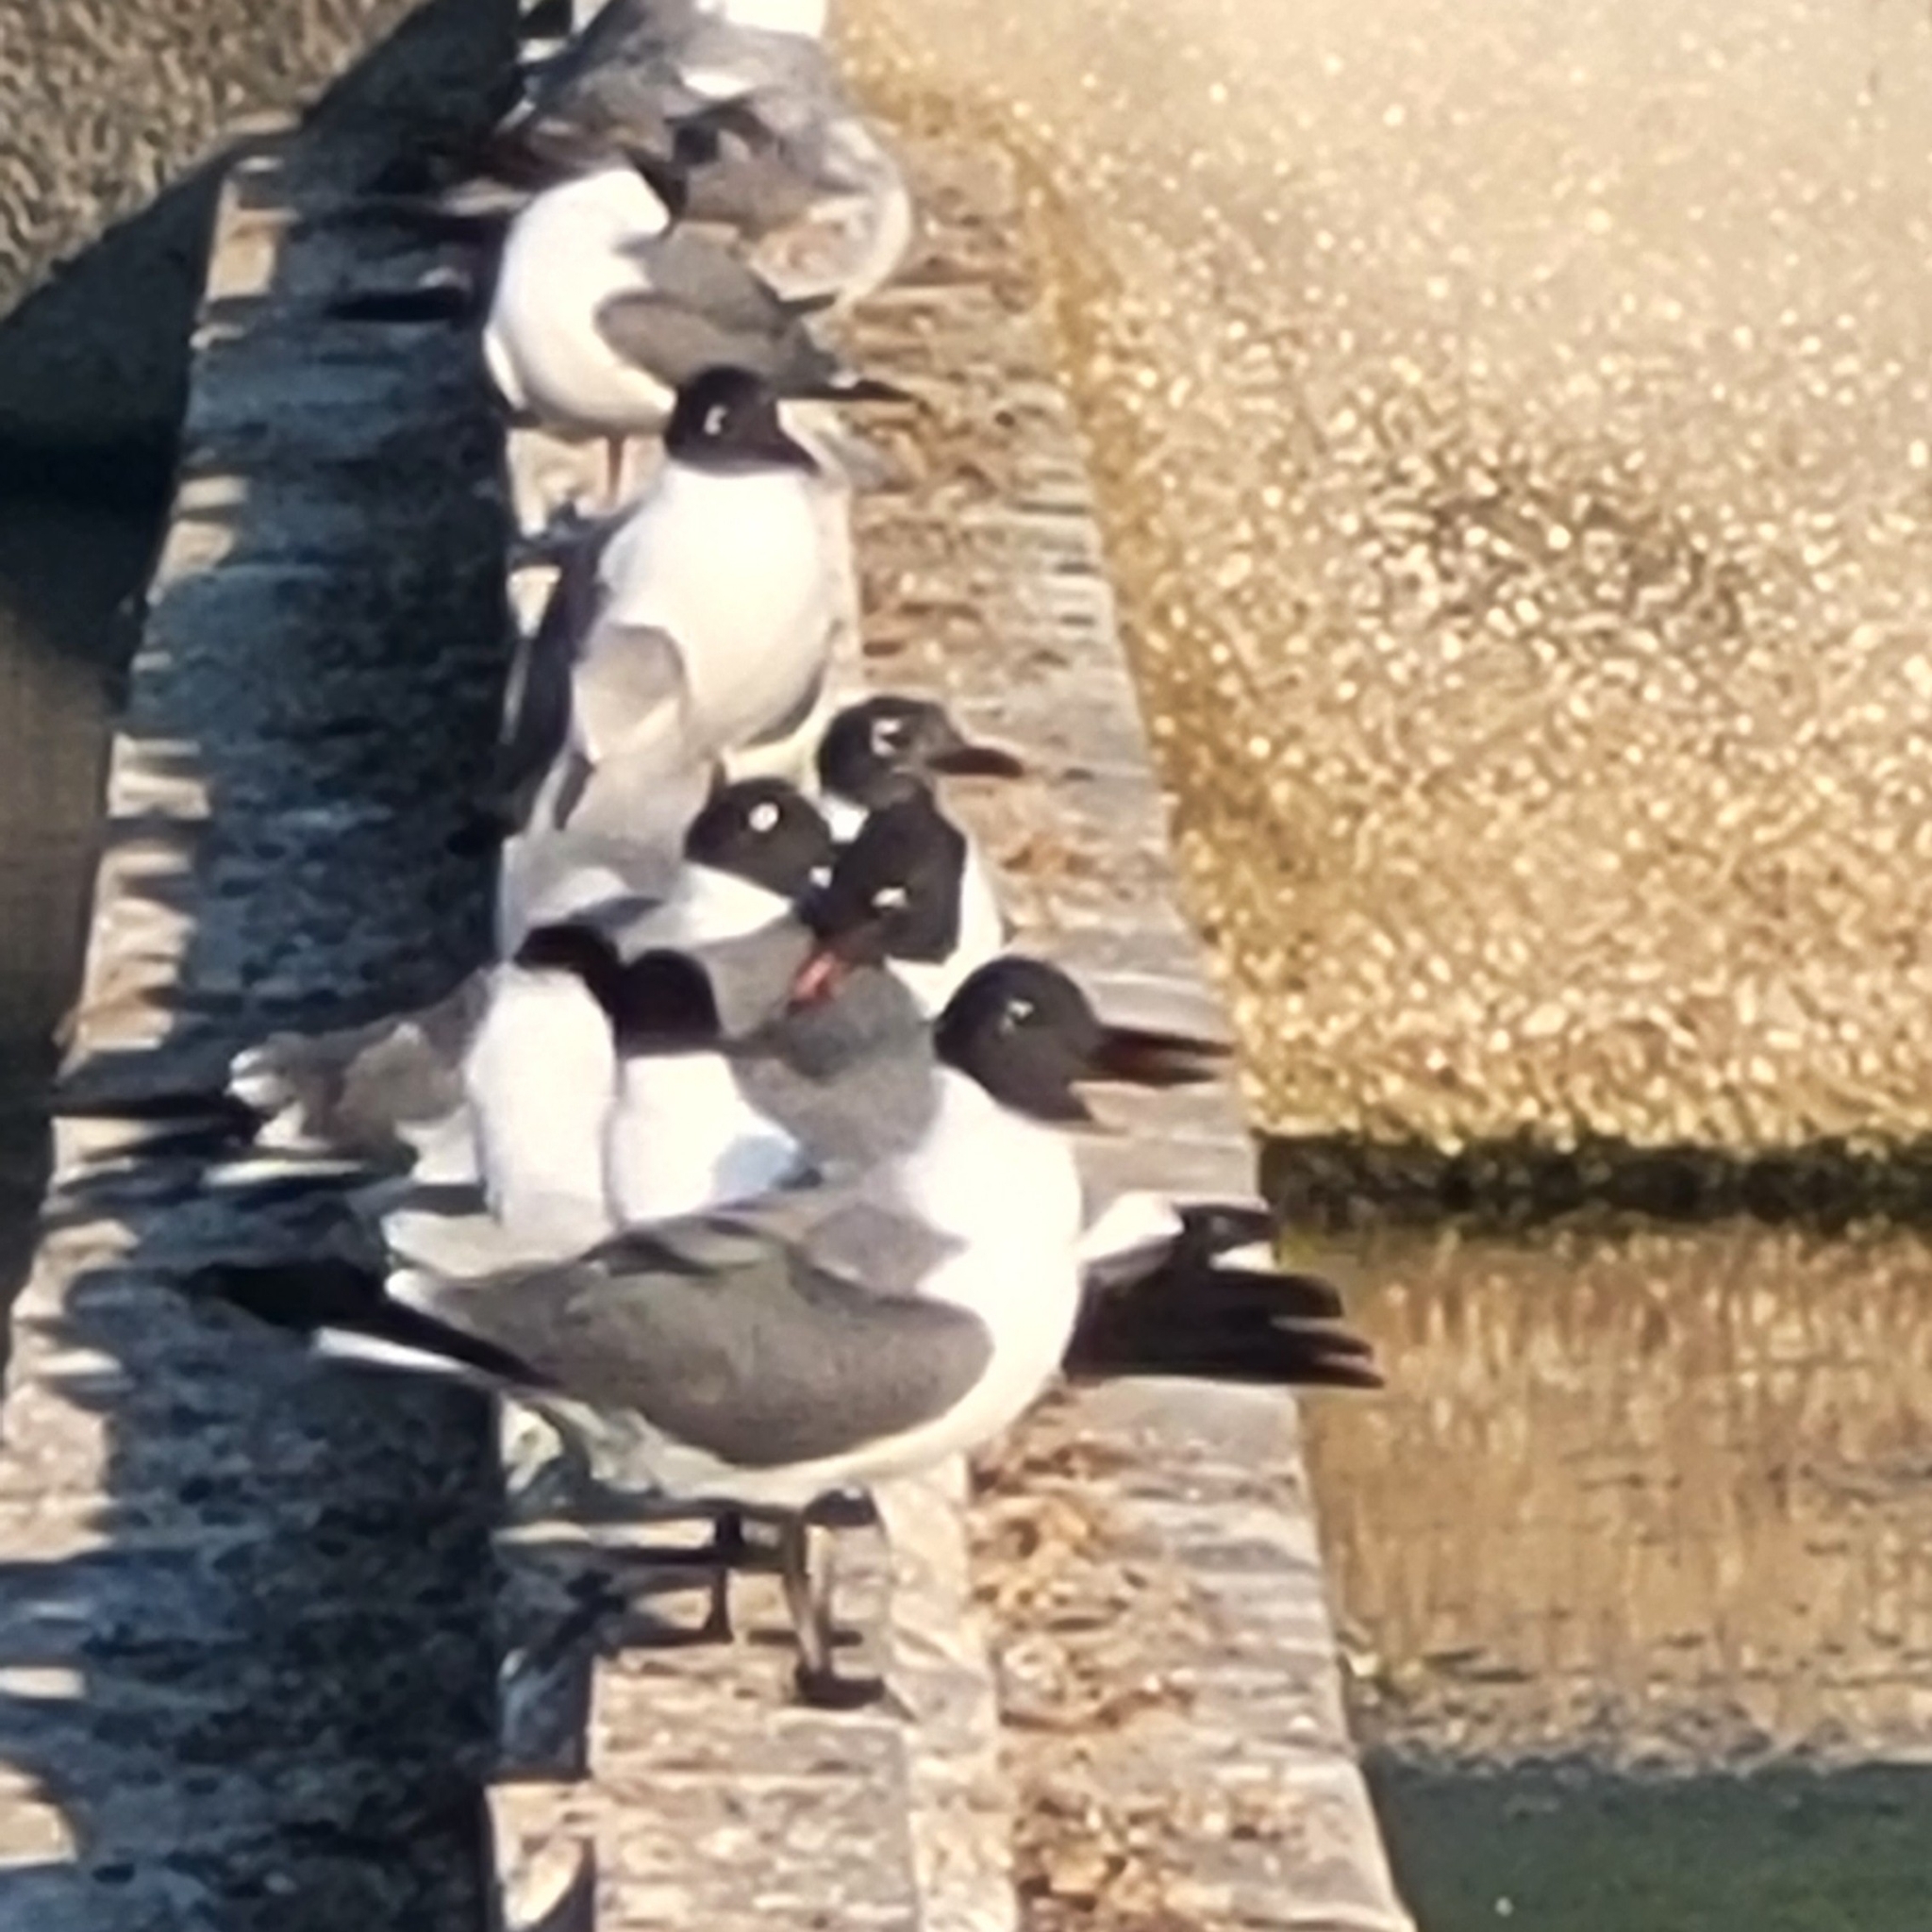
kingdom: Animalia
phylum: Chordata
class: Aves
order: Charadriiformes
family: Laridae
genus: Leucophaeus
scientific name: Leucophaeus atricilla
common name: Laughing gull
